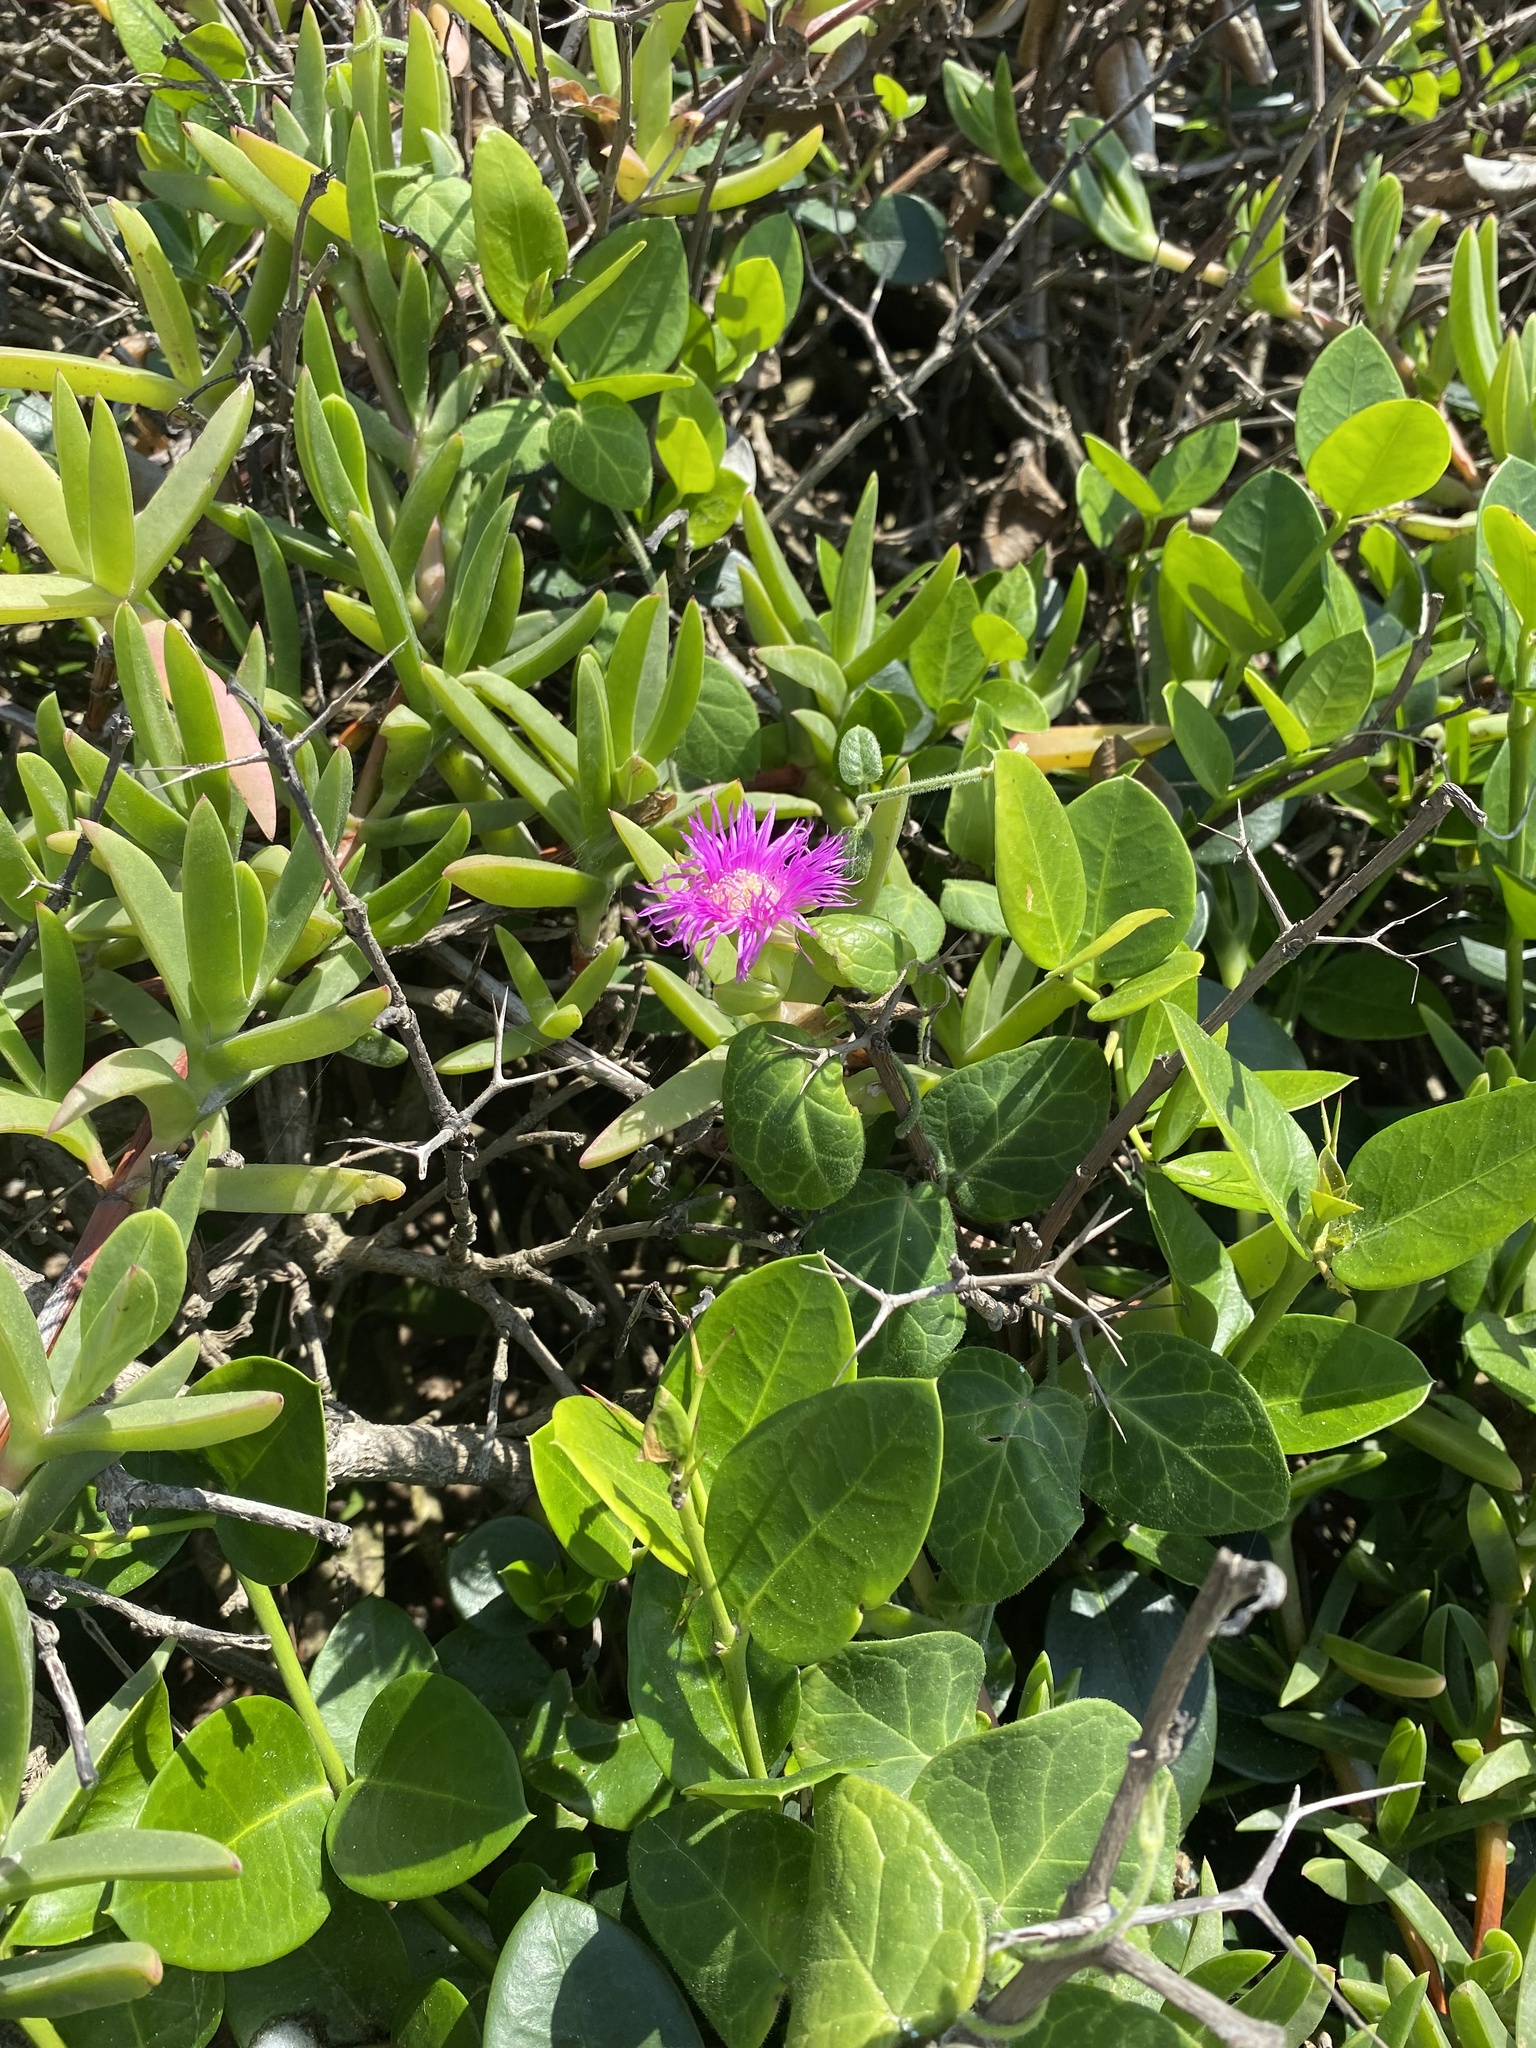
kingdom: Plantae
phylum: Tracheophyta
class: Magnoliopsida
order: Caryophyllales
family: Aizoaceae
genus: Carpobrotus
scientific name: Carpobrotus dimidiatus
